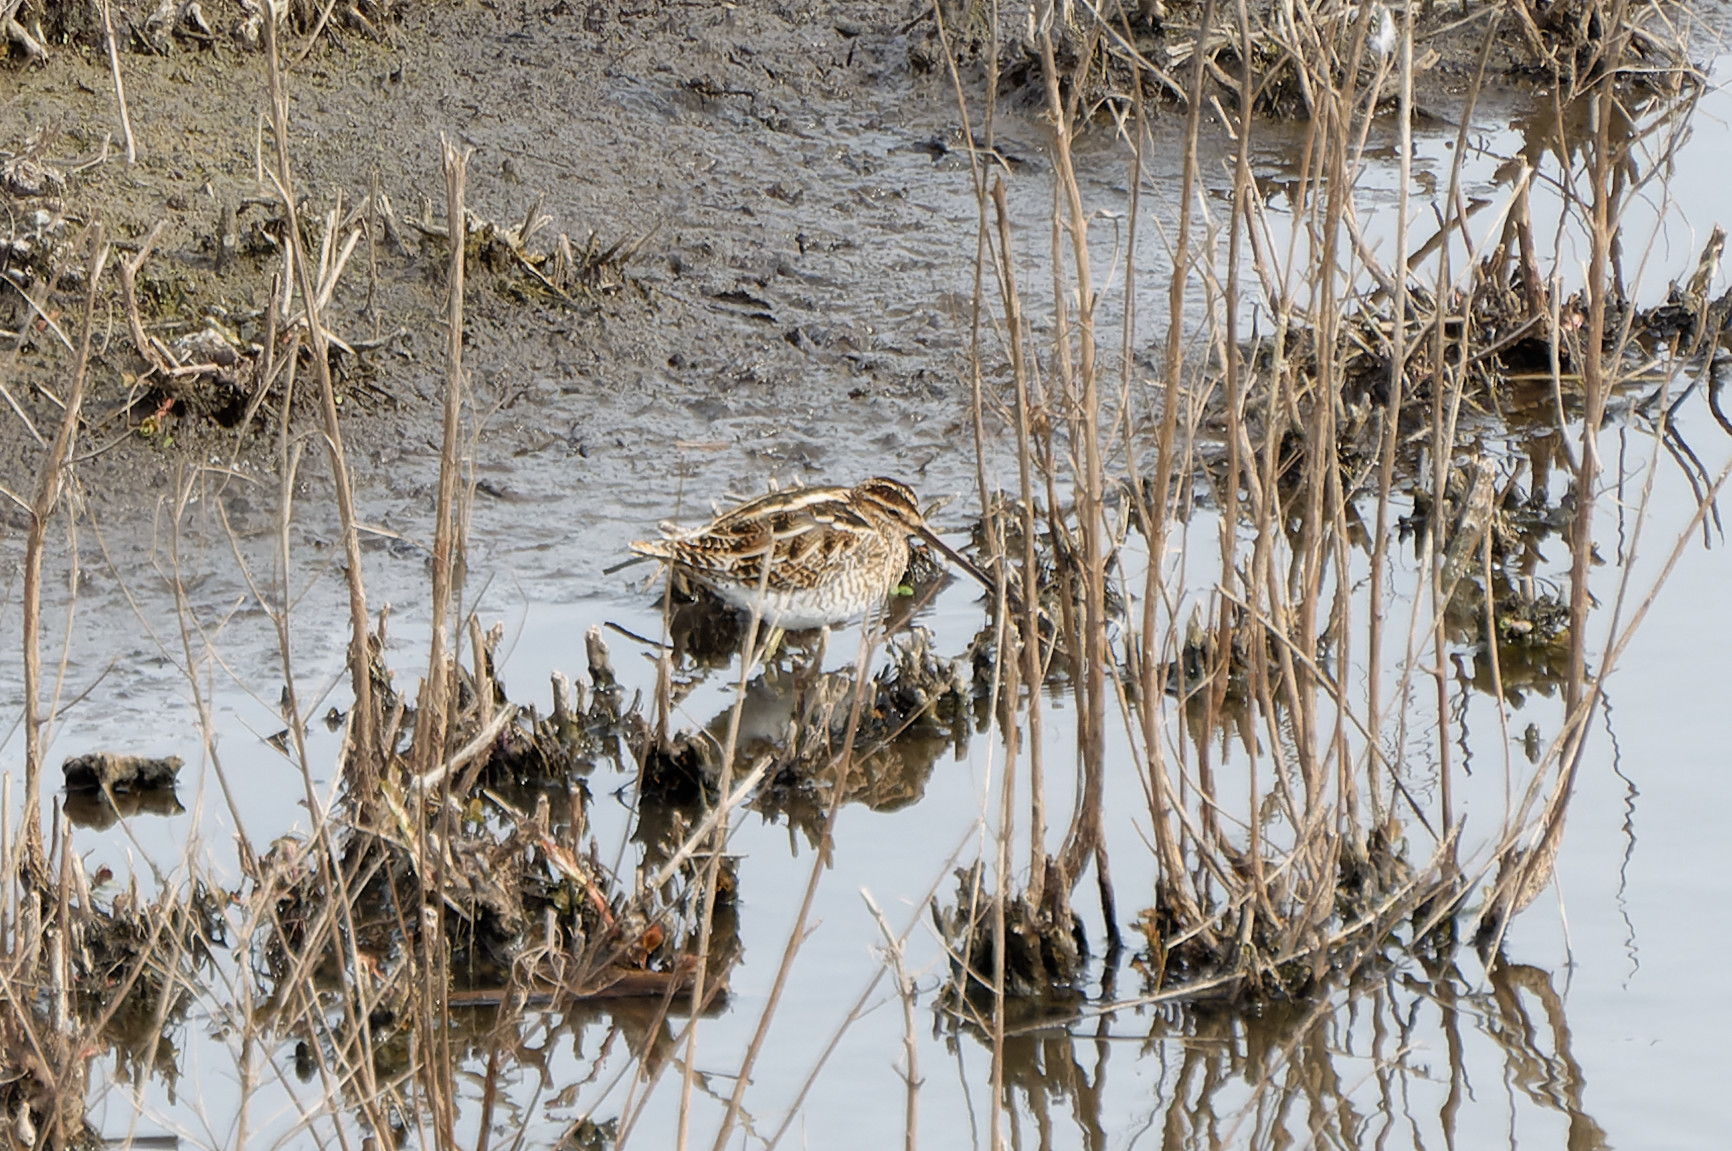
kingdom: Animalia
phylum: Chordata
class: Aves
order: Charadriiformes
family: Scolopacidae
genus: Gallinago
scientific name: Gallinago gallinago
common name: Common snipe
